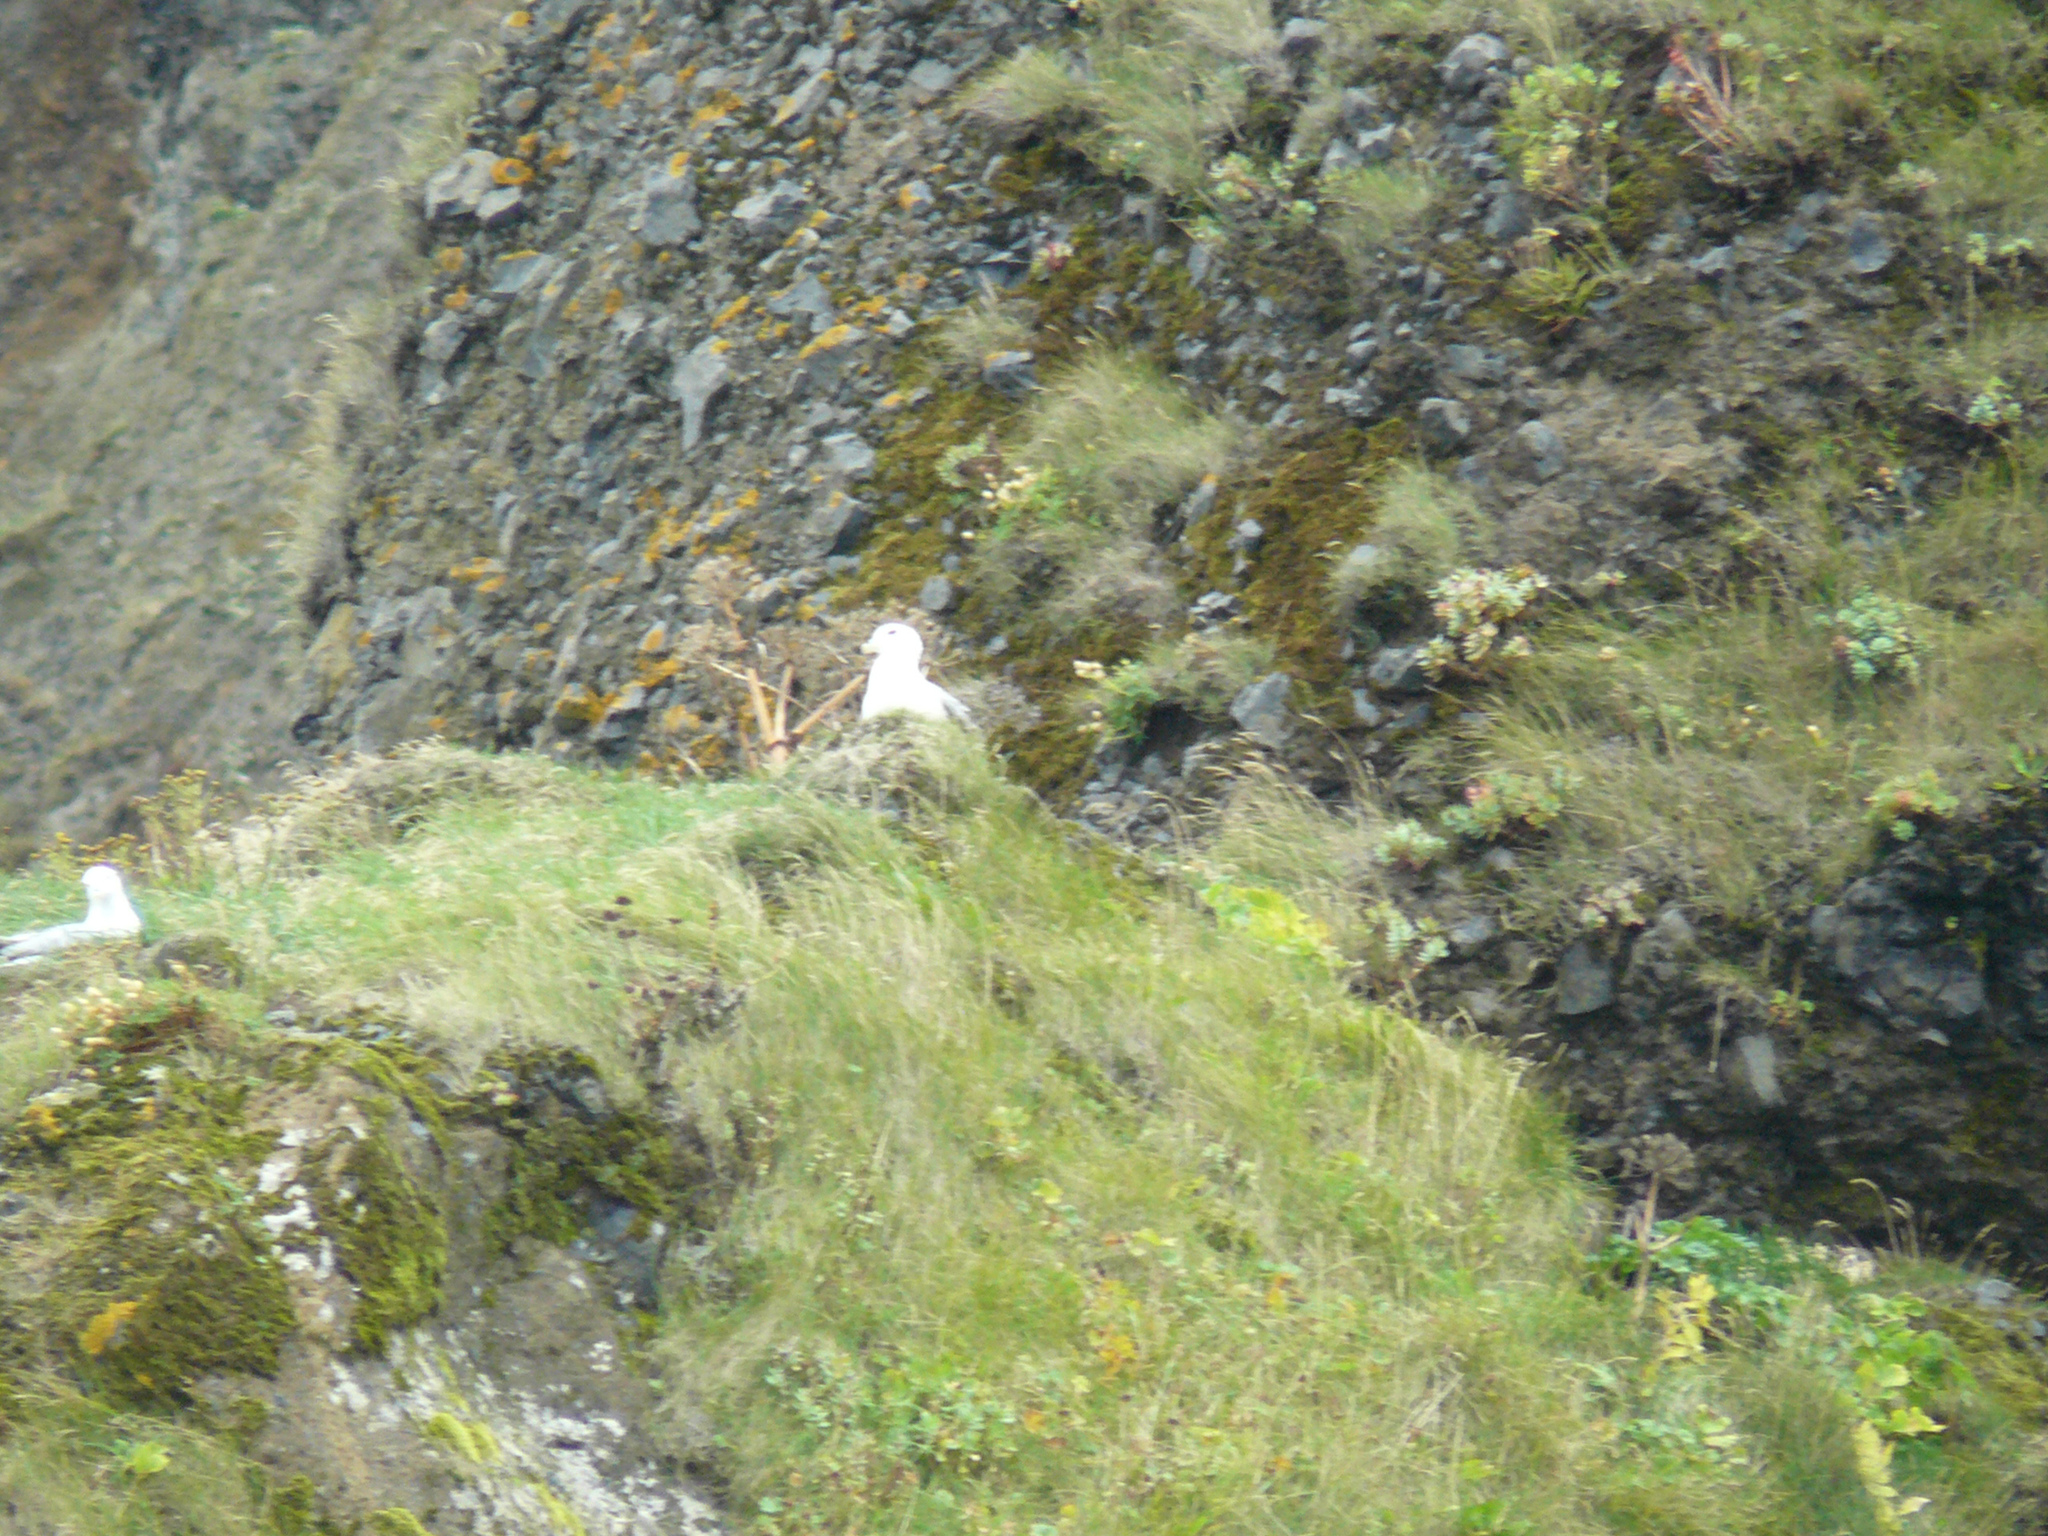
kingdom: Animalia
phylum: Chordata
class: Aves
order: Procellariiformes
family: Procellariidae
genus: Fulmarus
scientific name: Fulmarus glacialis
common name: Northern fulmar
